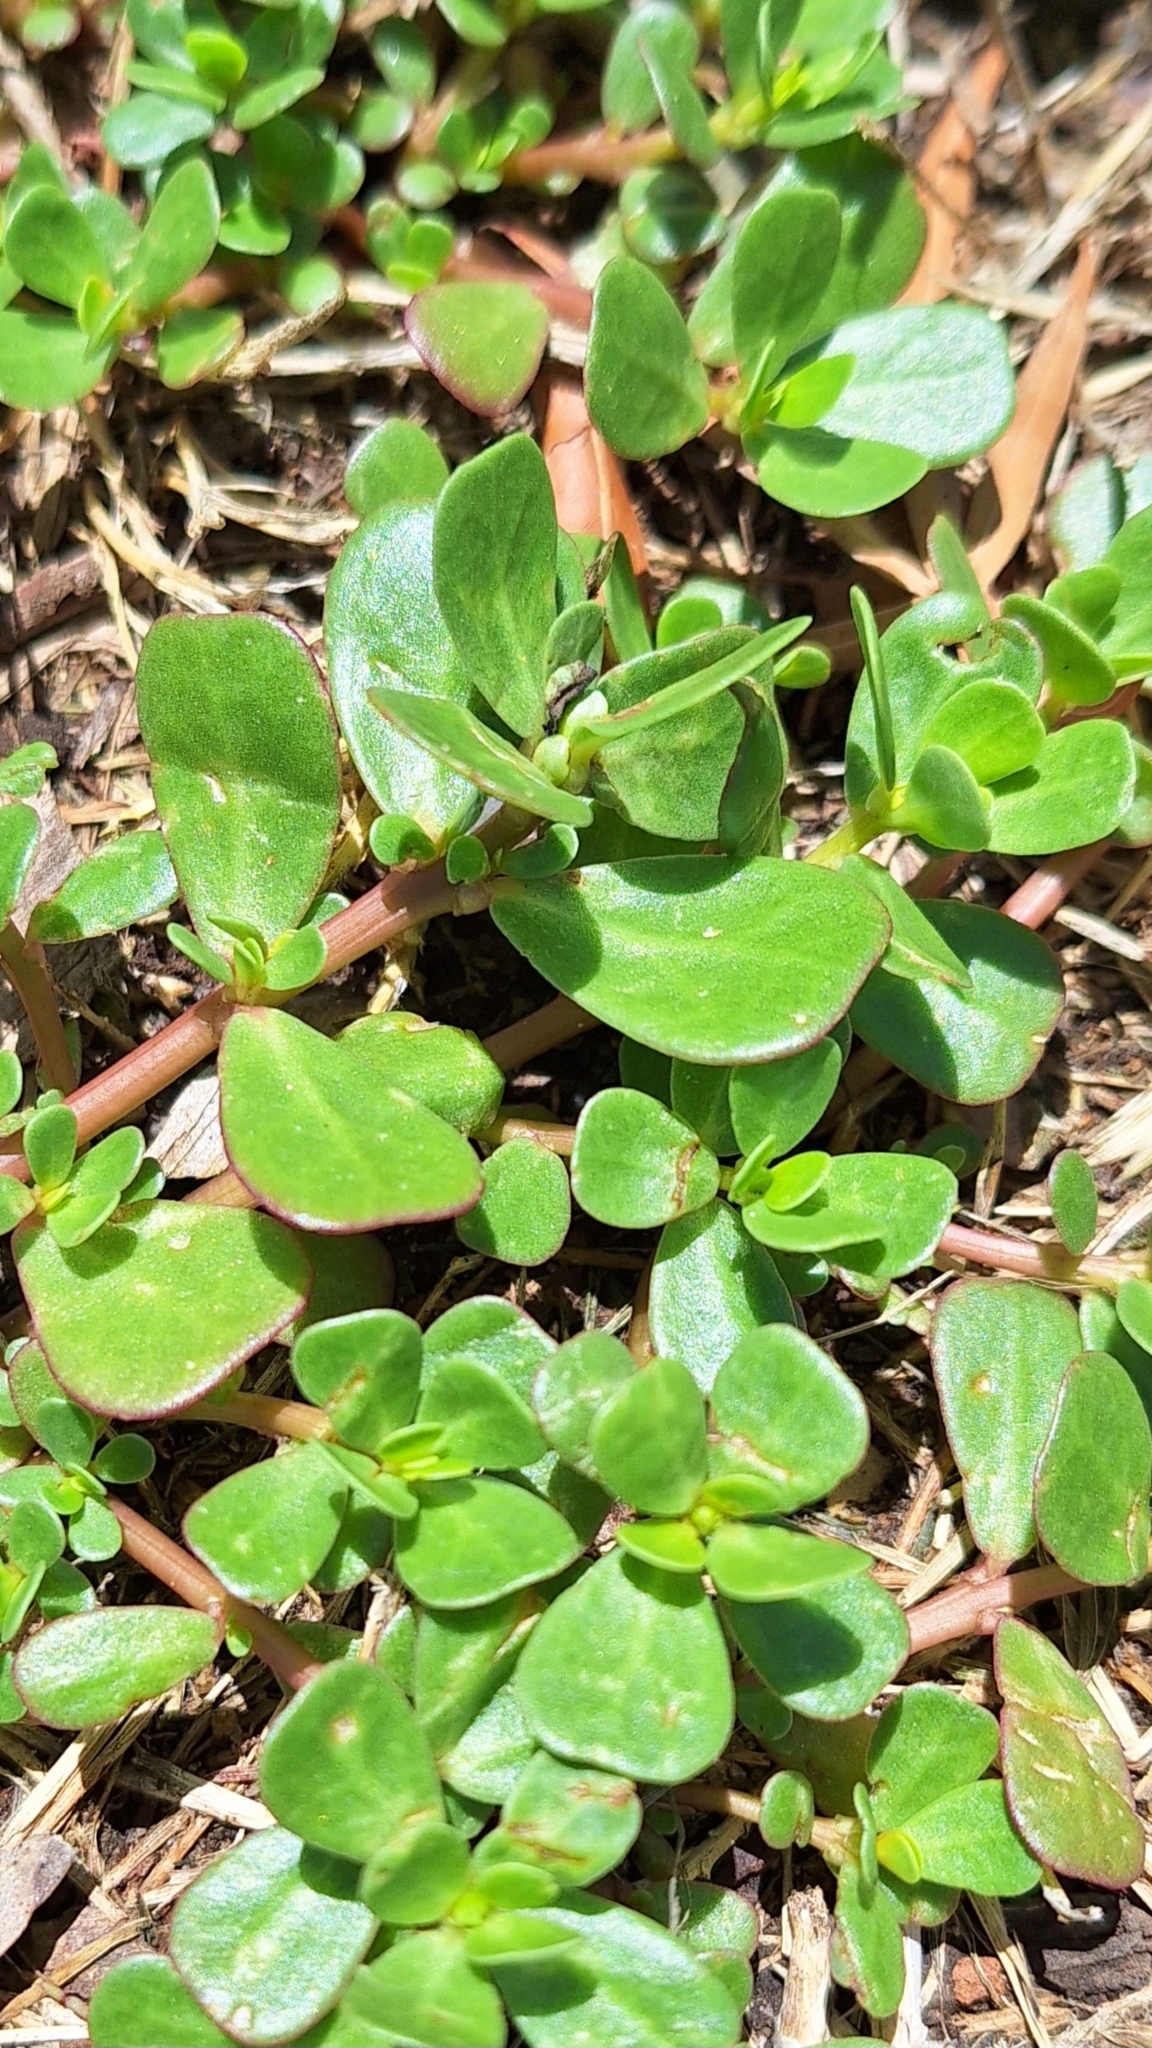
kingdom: Plantae
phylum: Tracheophyta
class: Magnoliopsida
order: Caryophyllales
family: Portulacaceae
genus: Portulaca
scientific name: Portulaca oleracea
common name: Common purslane
